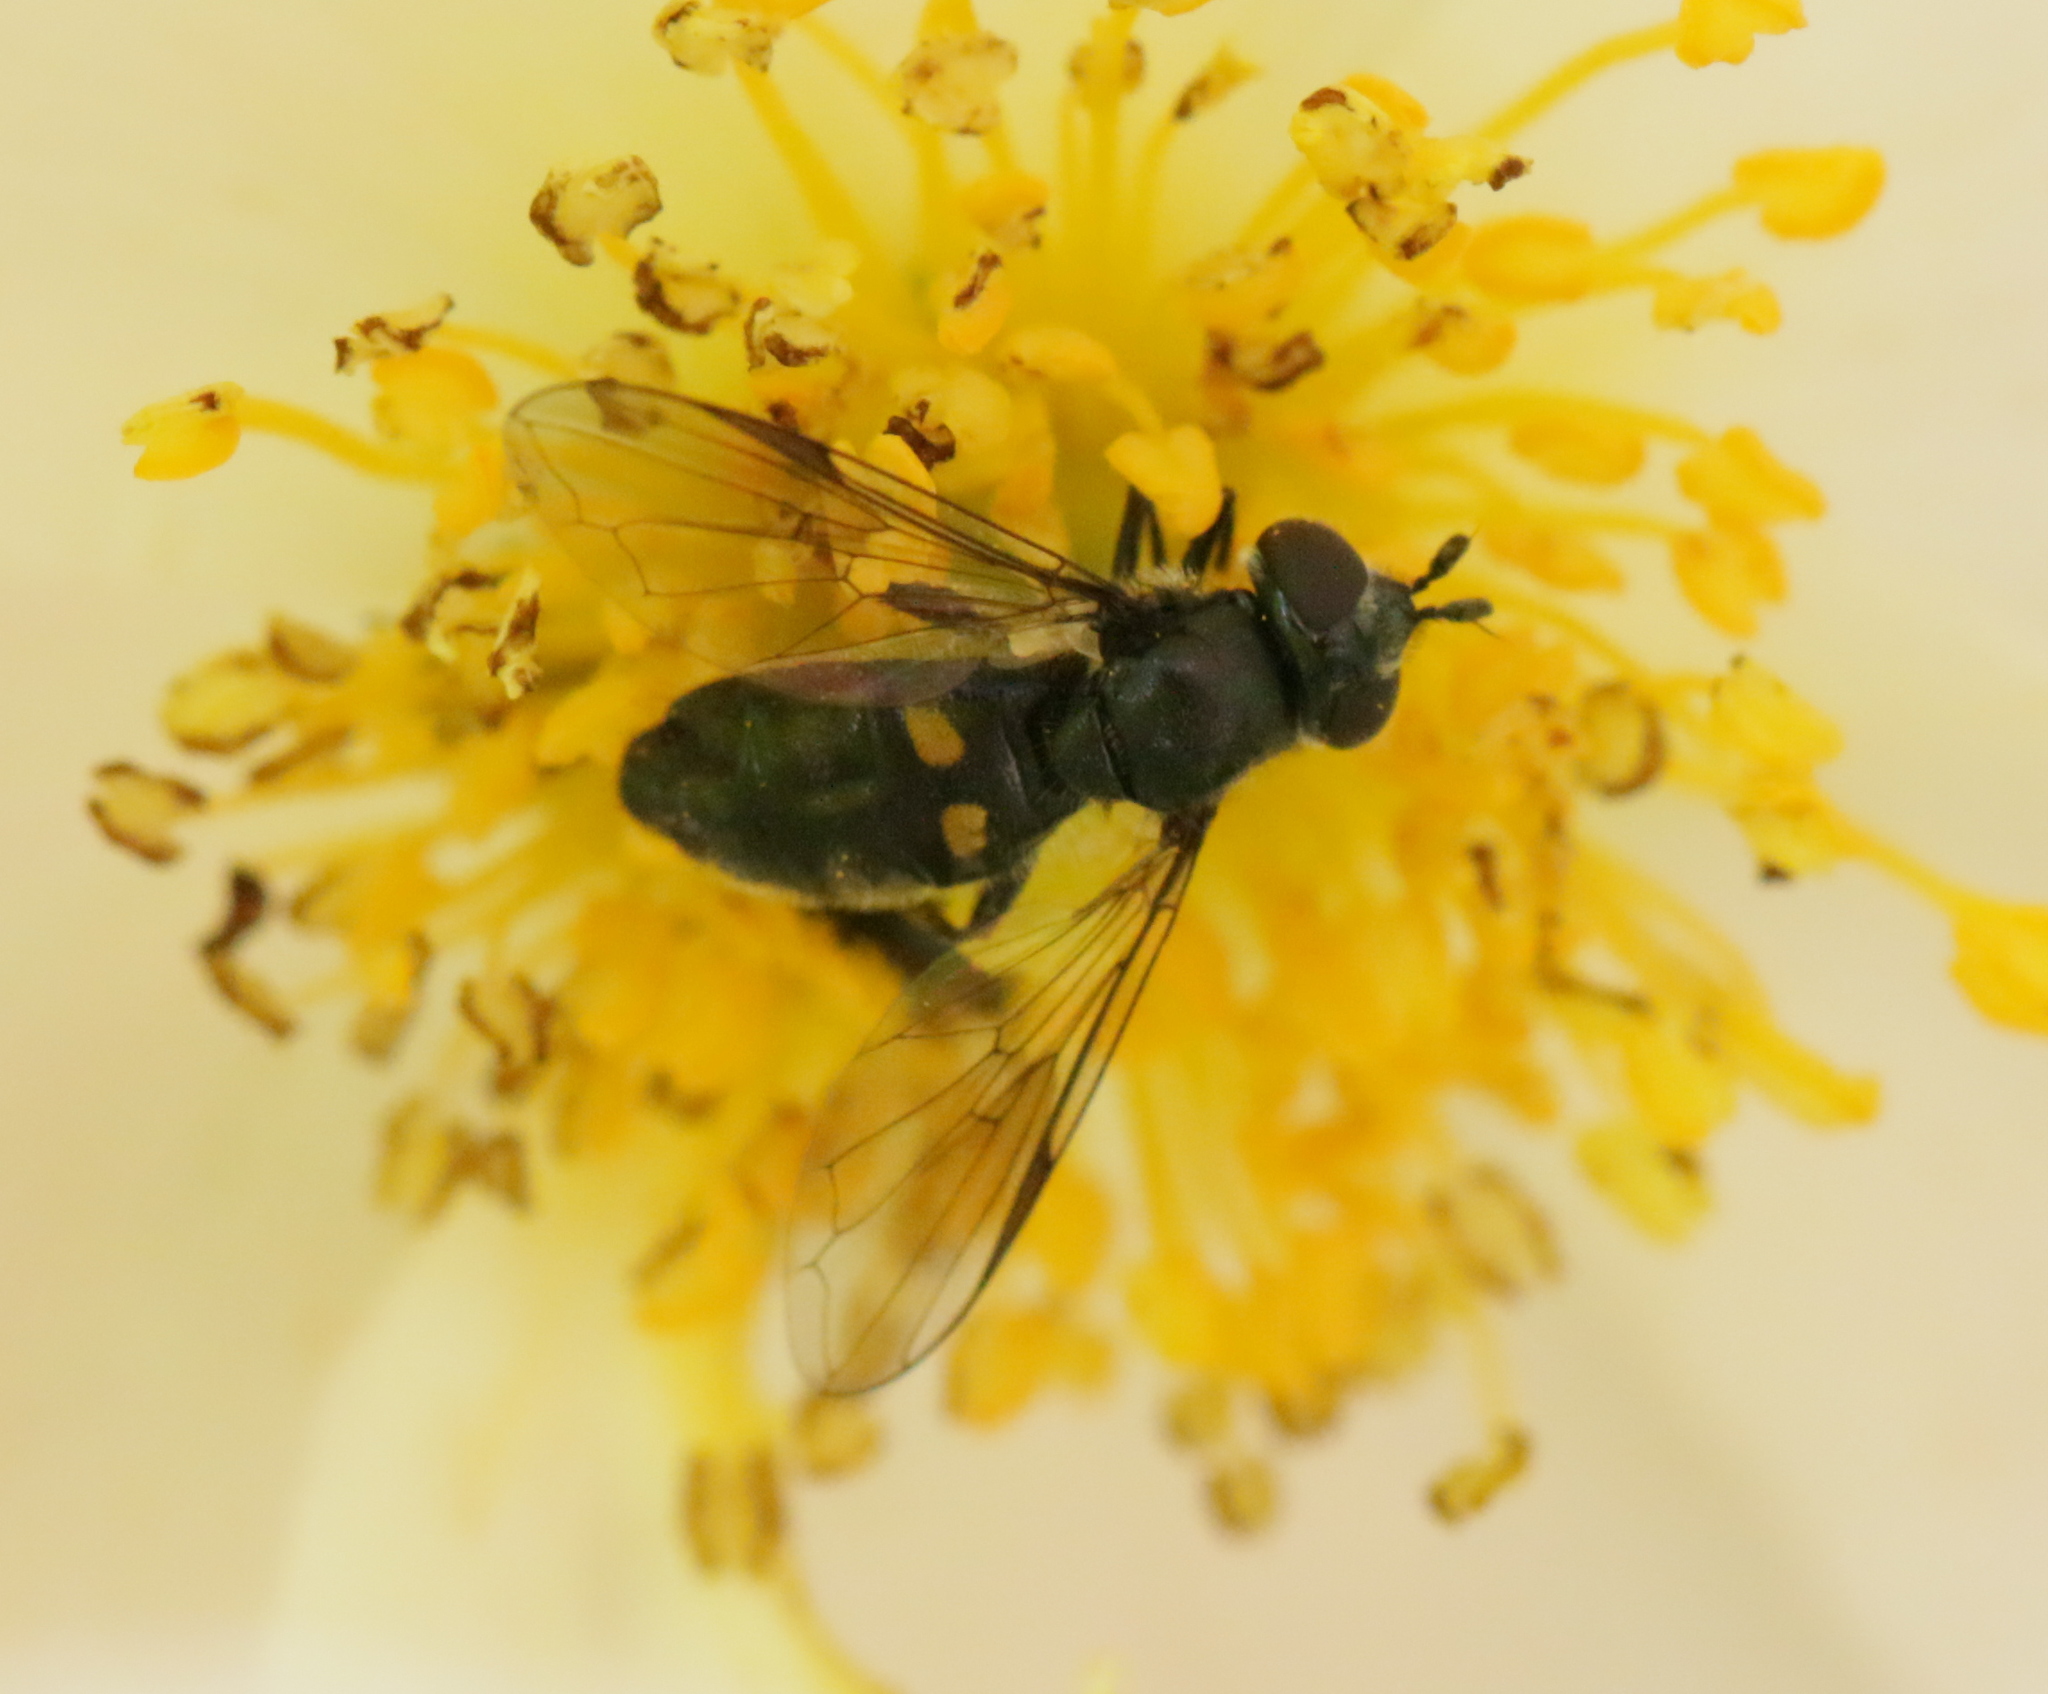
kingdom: Animalia
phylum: Arthropoda
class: Insecta
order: Diptera
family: Syrphidae
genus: Pipiza
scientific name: Pipiza
